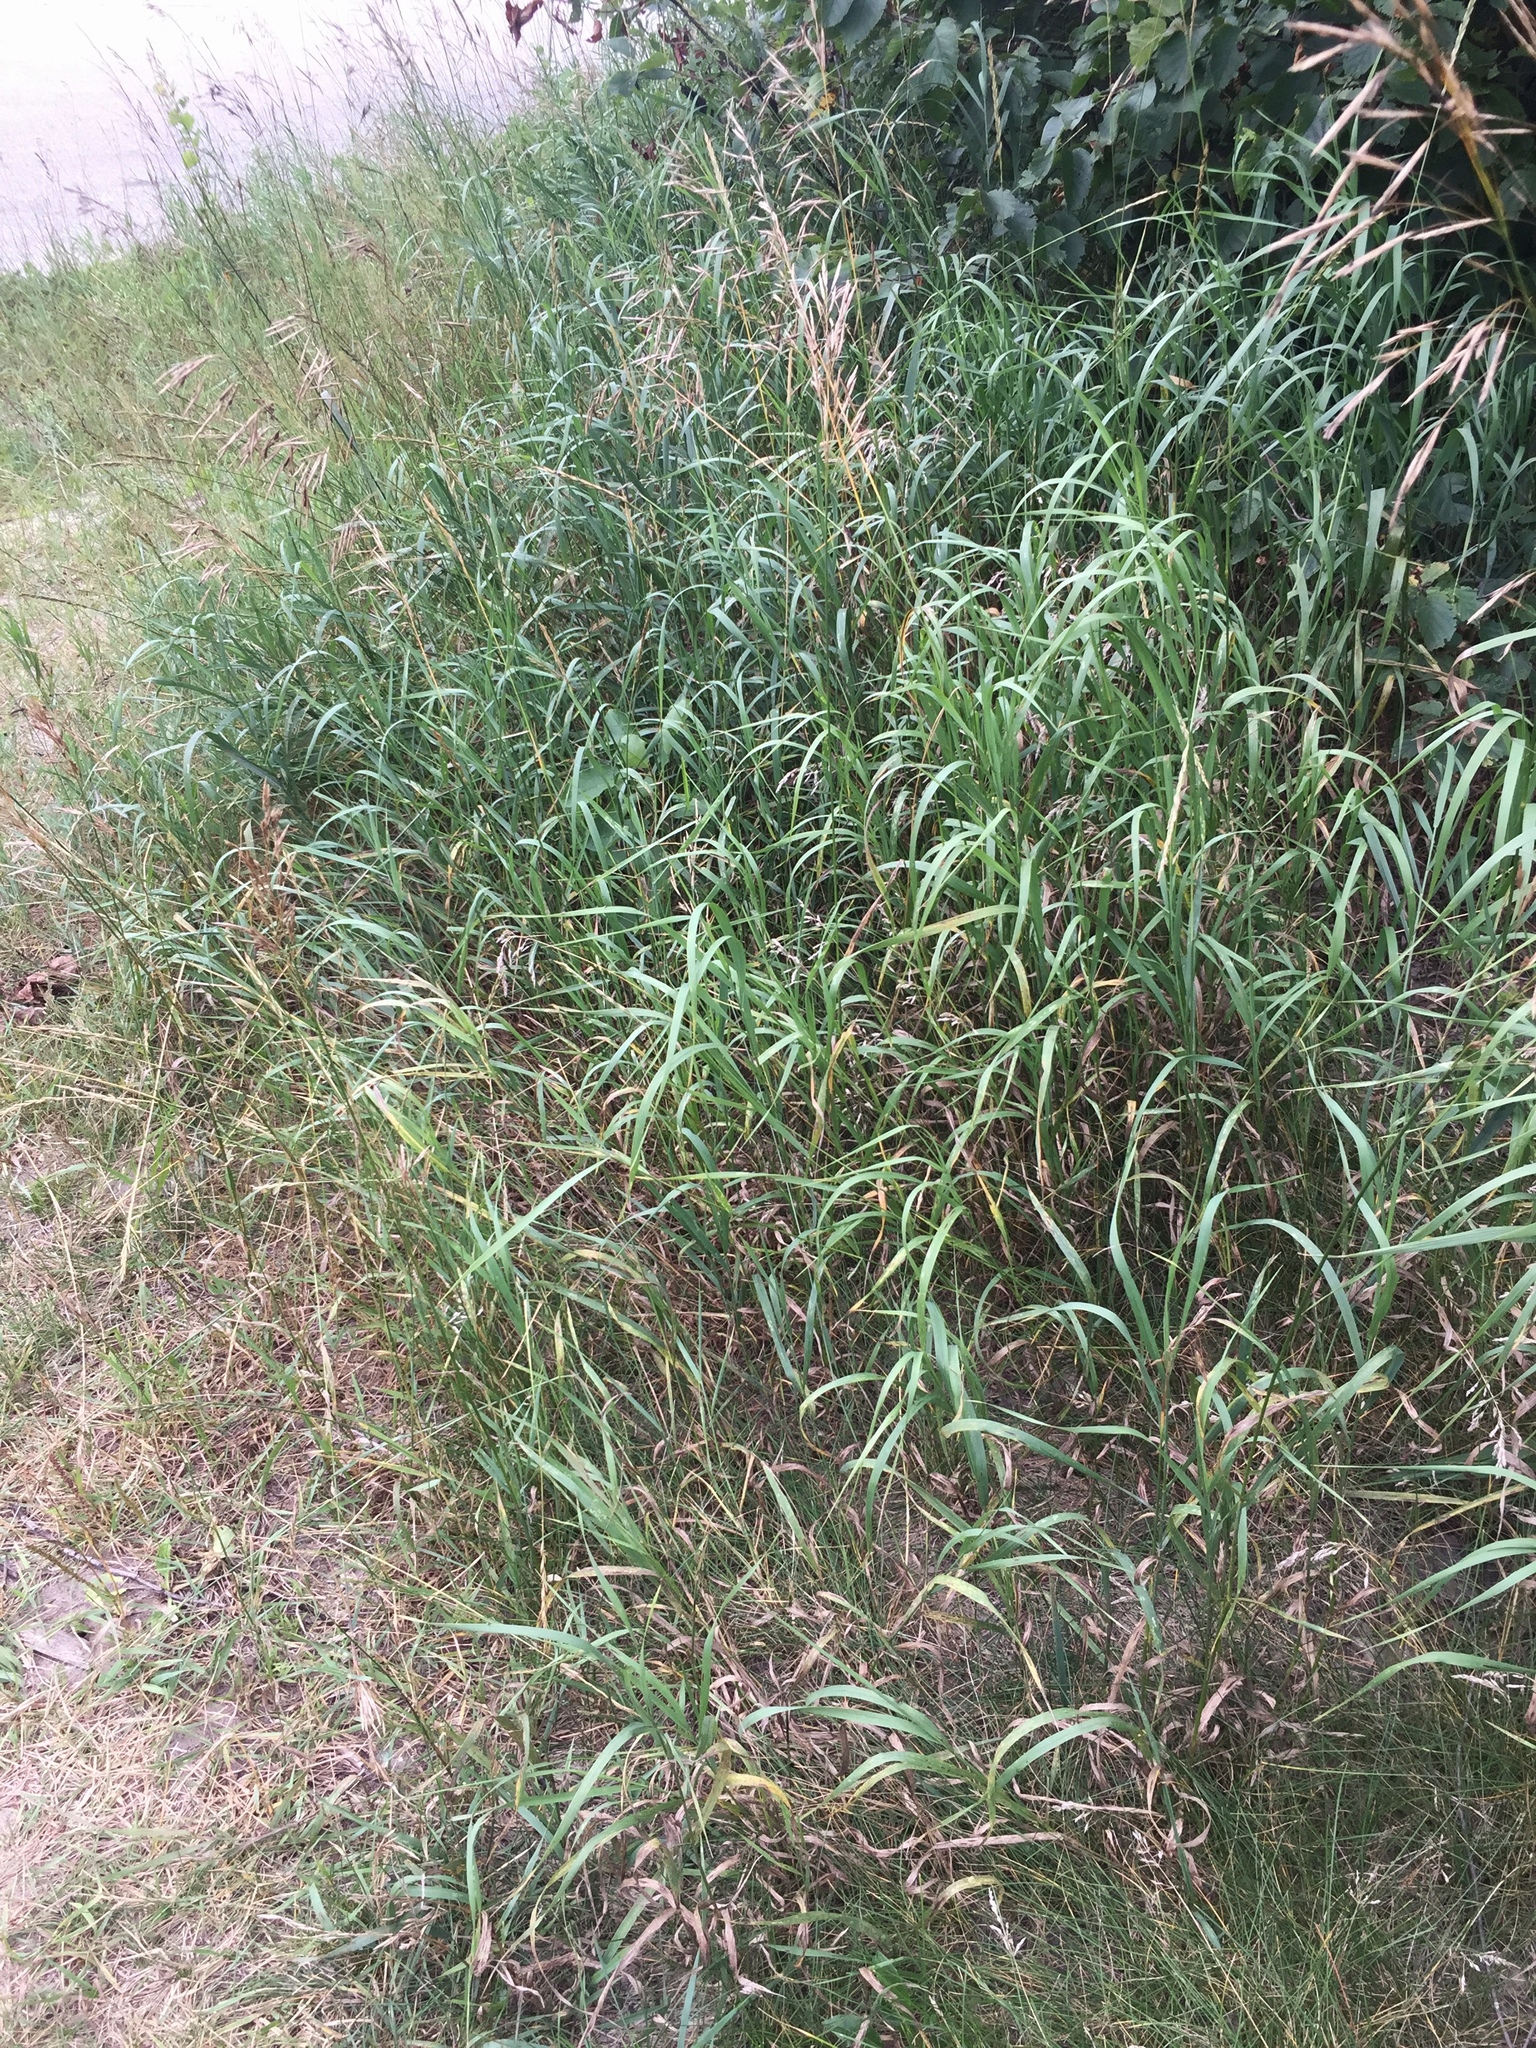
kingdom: Plantae
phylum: Tracheophyta
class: Liliopsida
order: Poales
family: Poaceae
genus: Bromus
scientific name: Bromus inermis
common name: Smooth brome
